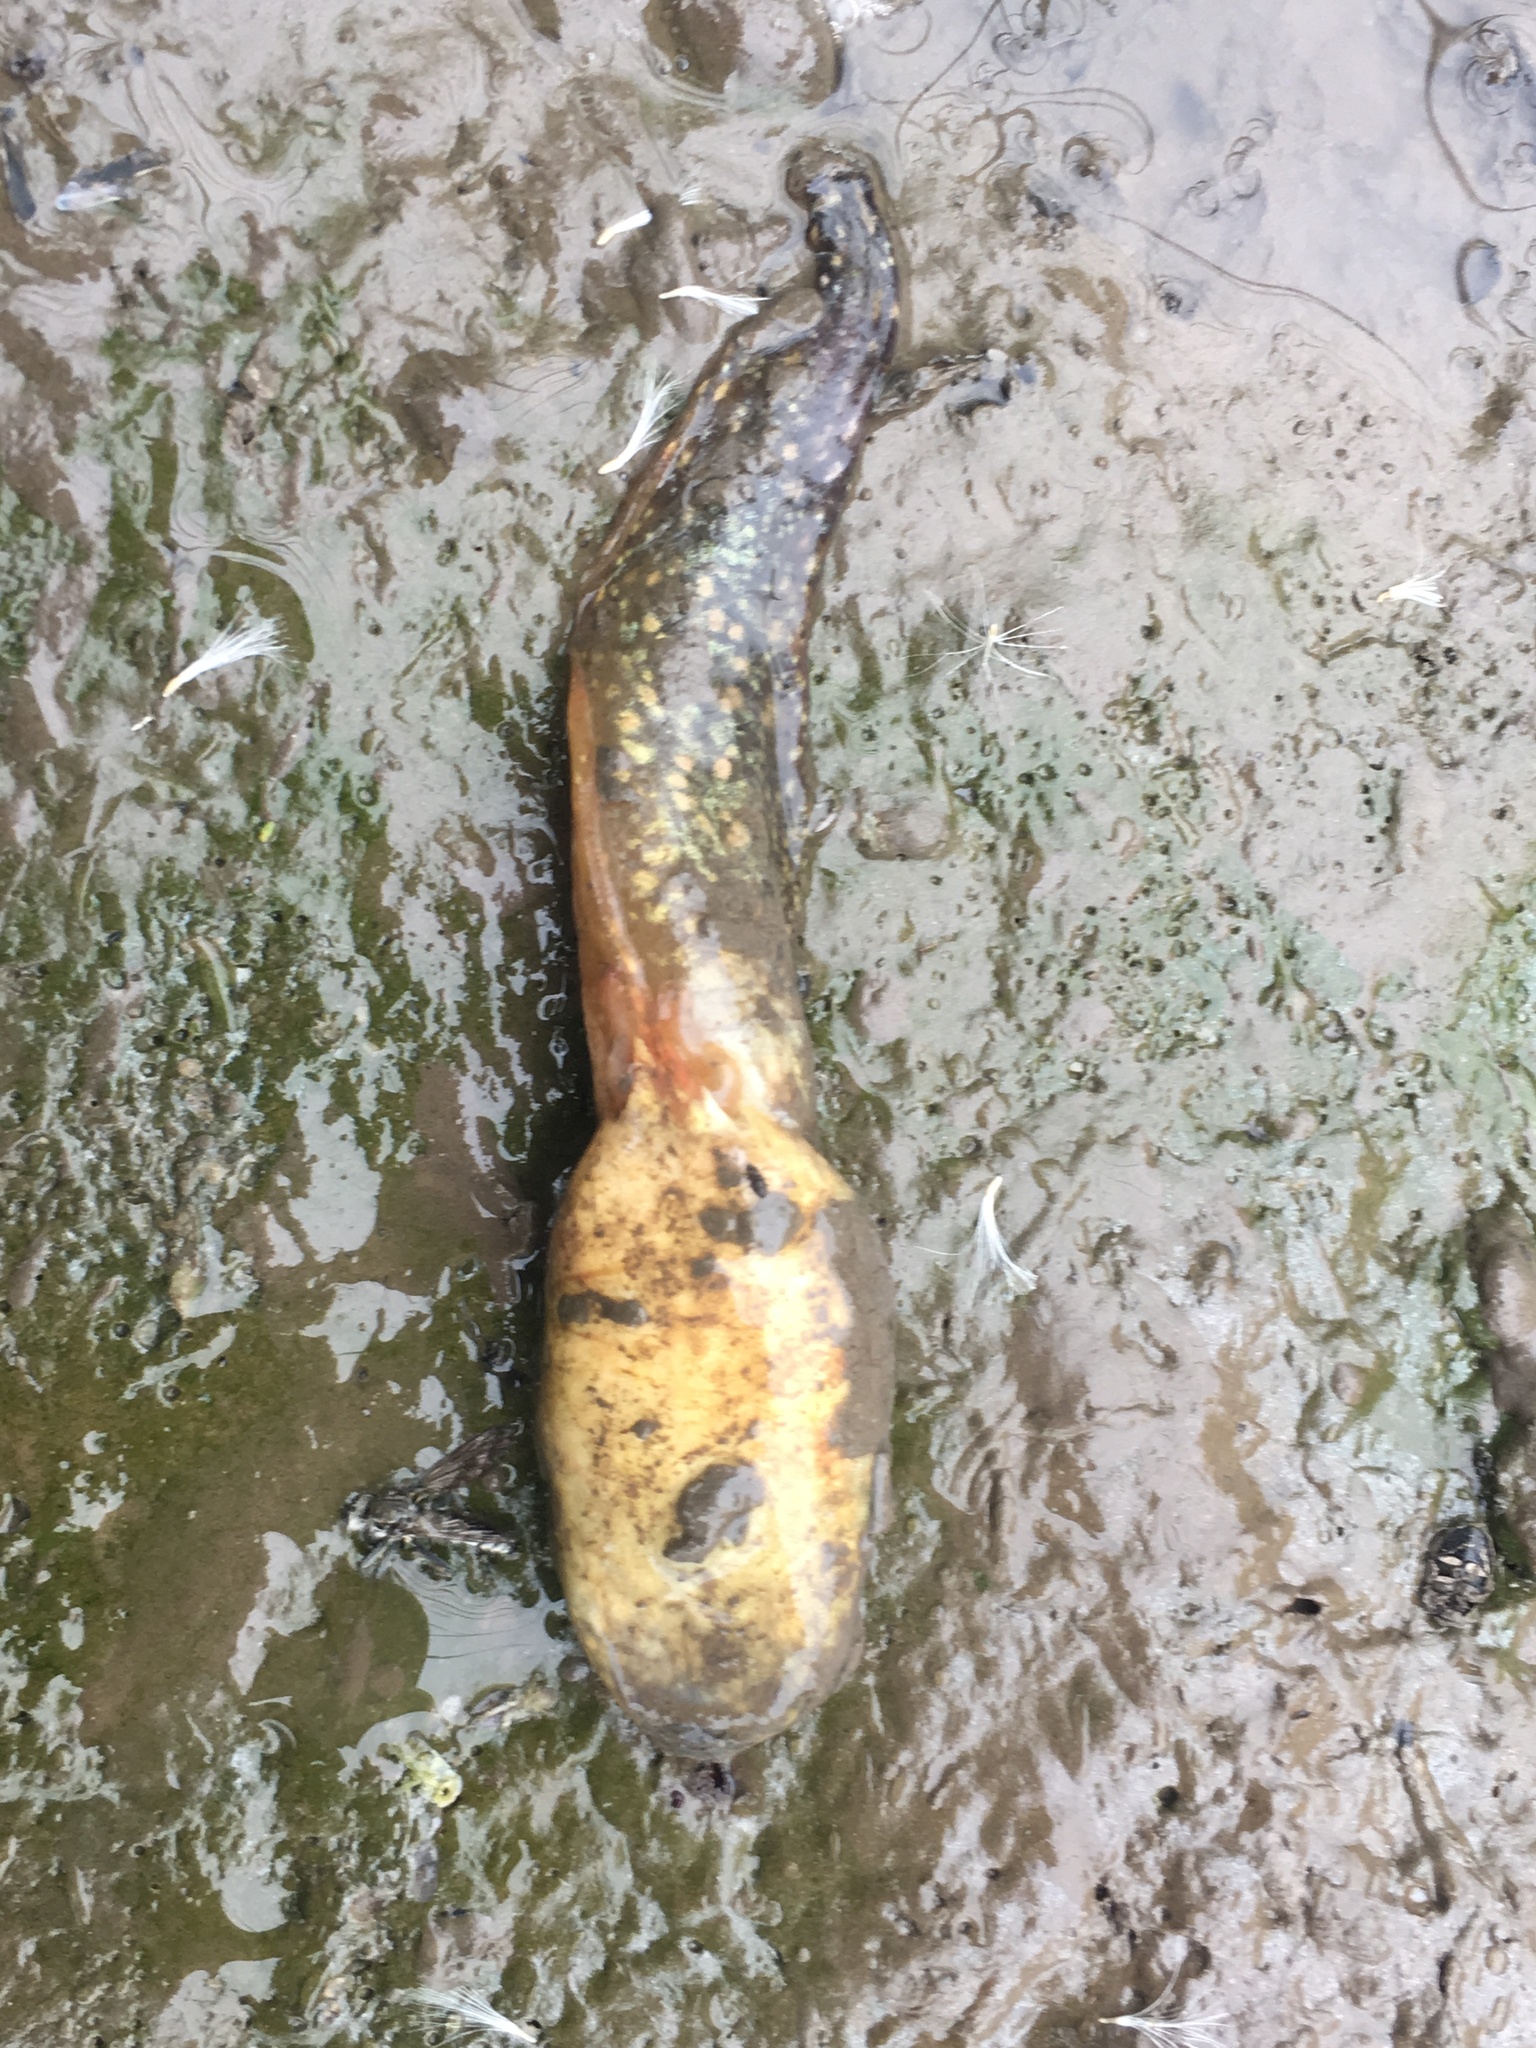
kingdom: Animalia
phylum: Chordata
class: Amphibia
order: Anura
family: Ranidae
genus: Lithobates
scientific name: Lithobates catesbeianus
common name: American bullfrog
